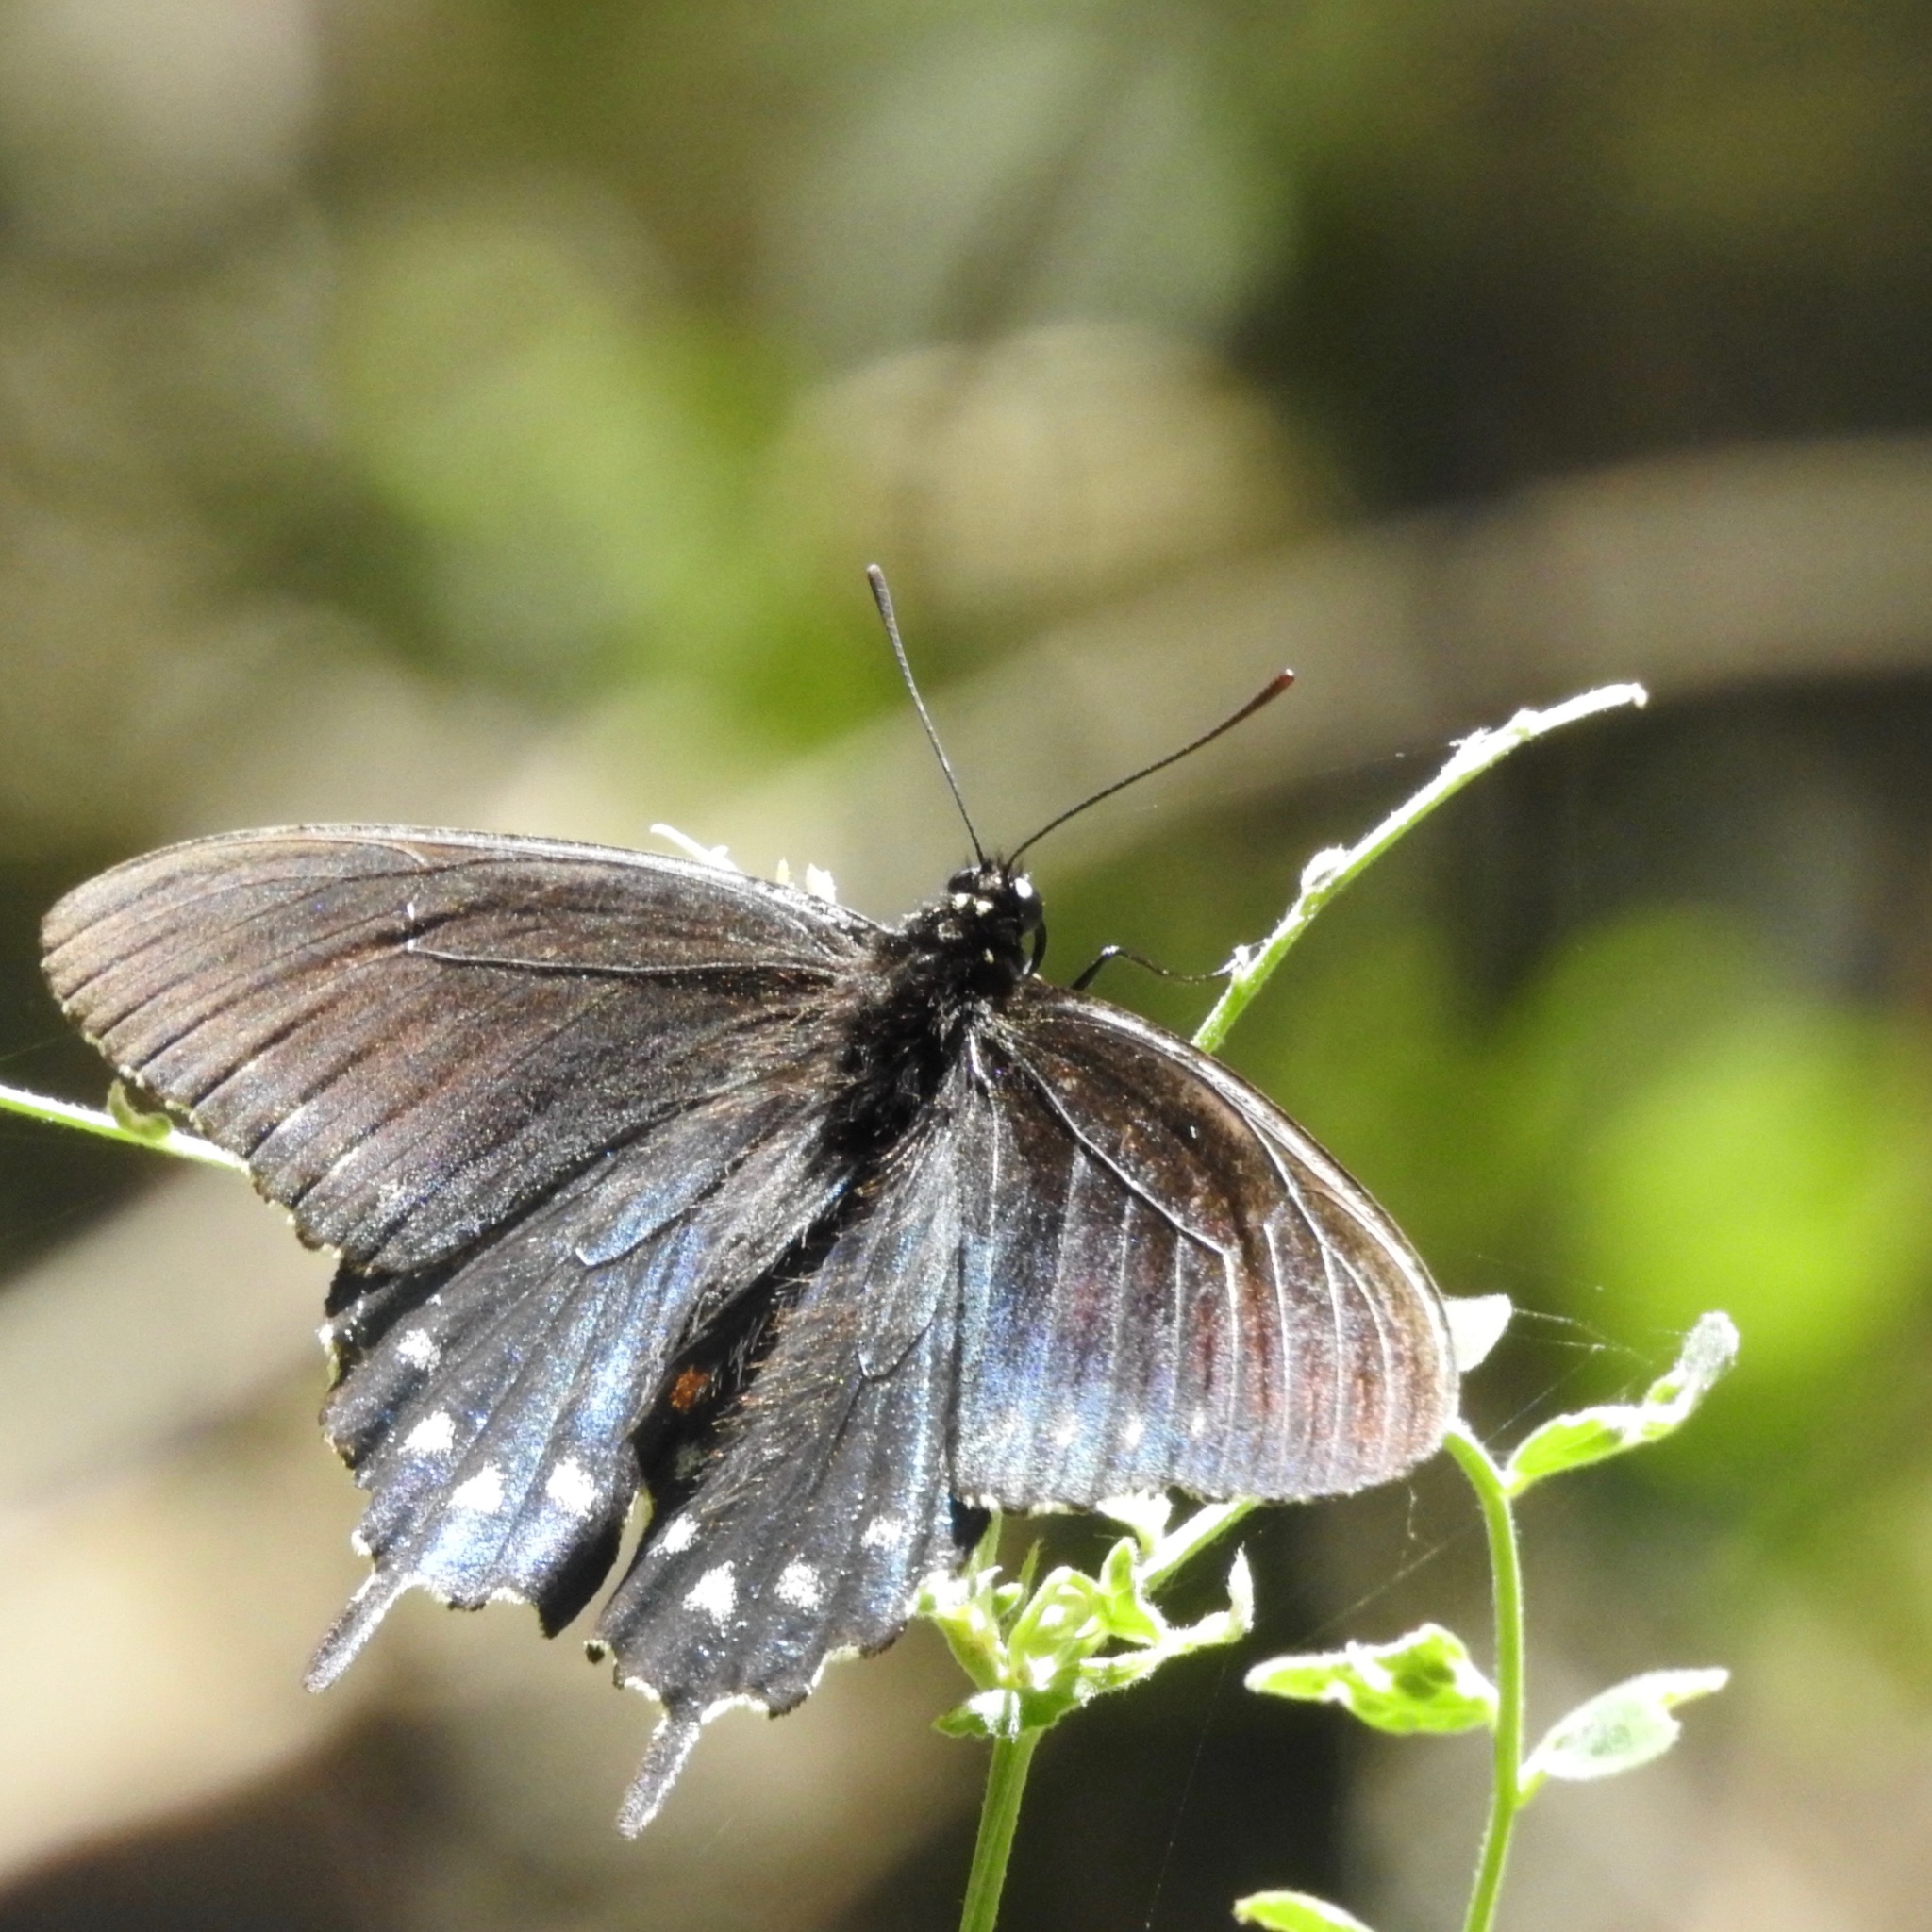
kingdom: Animalia
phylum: Arthropoda
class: Insecta
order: Lepidoptera
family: Papilionidae
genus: Battus
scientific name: Battus philenor
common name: Pipevine swallowtail
